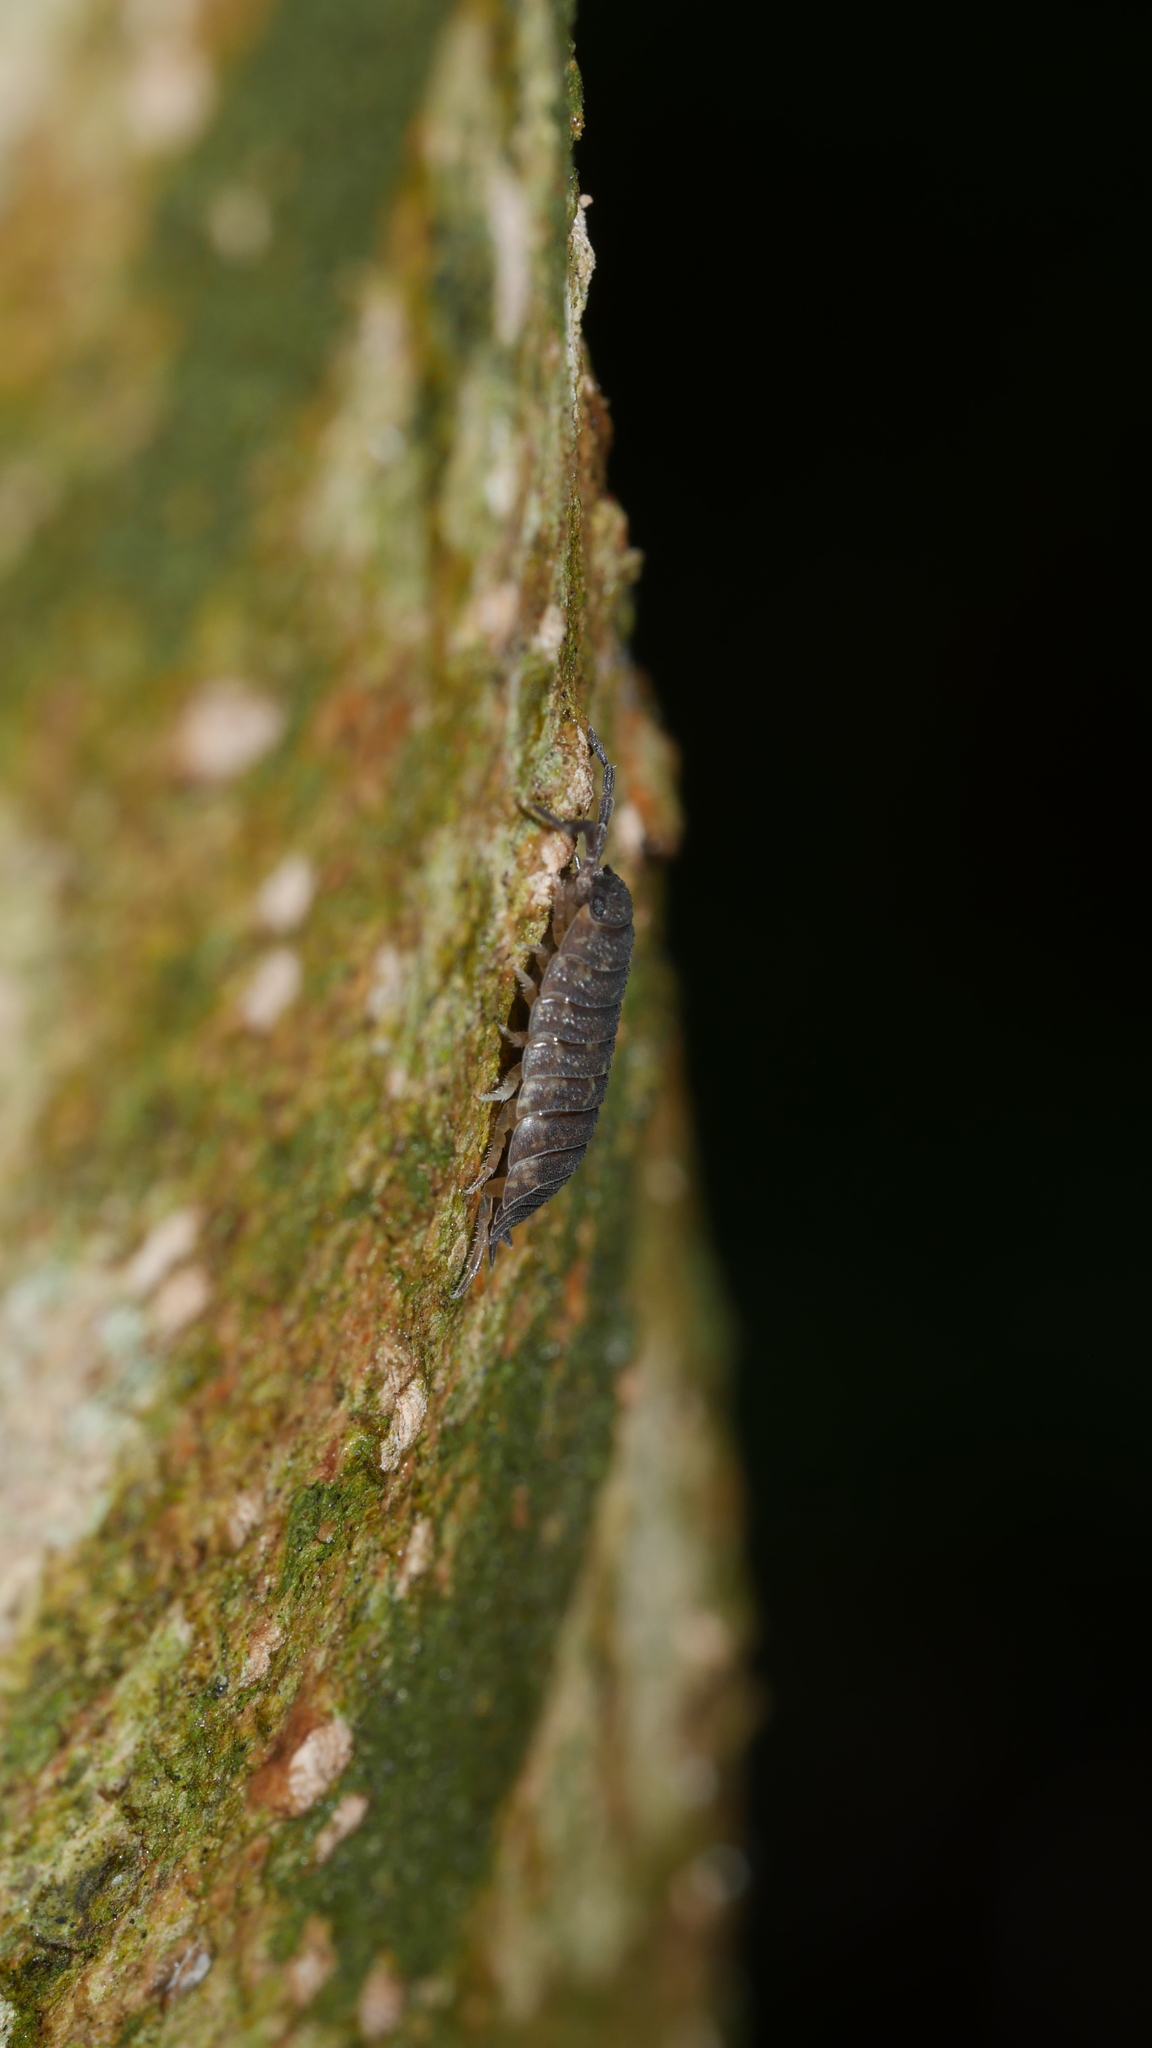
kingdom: Animalia
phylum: Arthropoda
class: Malacostraca
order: Isopoda
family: Porcellionidae
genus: Porcellio
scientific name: Porcellio scaber
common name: Common rough woodlouse
